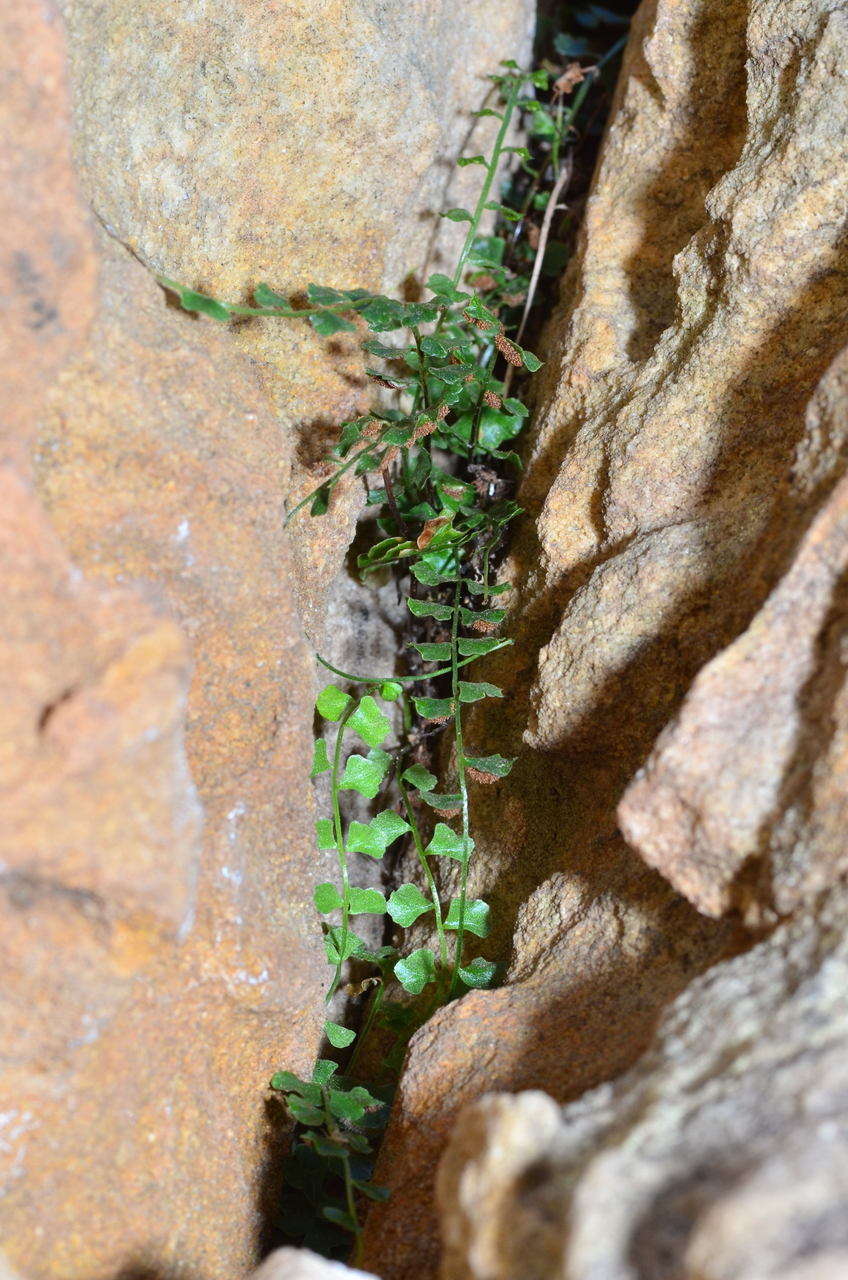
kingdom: Plantae
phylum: Tracheophyta
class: Polypodiopsida
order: Polypodiales
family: Aspleniaceae
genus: Asplenium
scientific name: Asplenium flabellifolium
